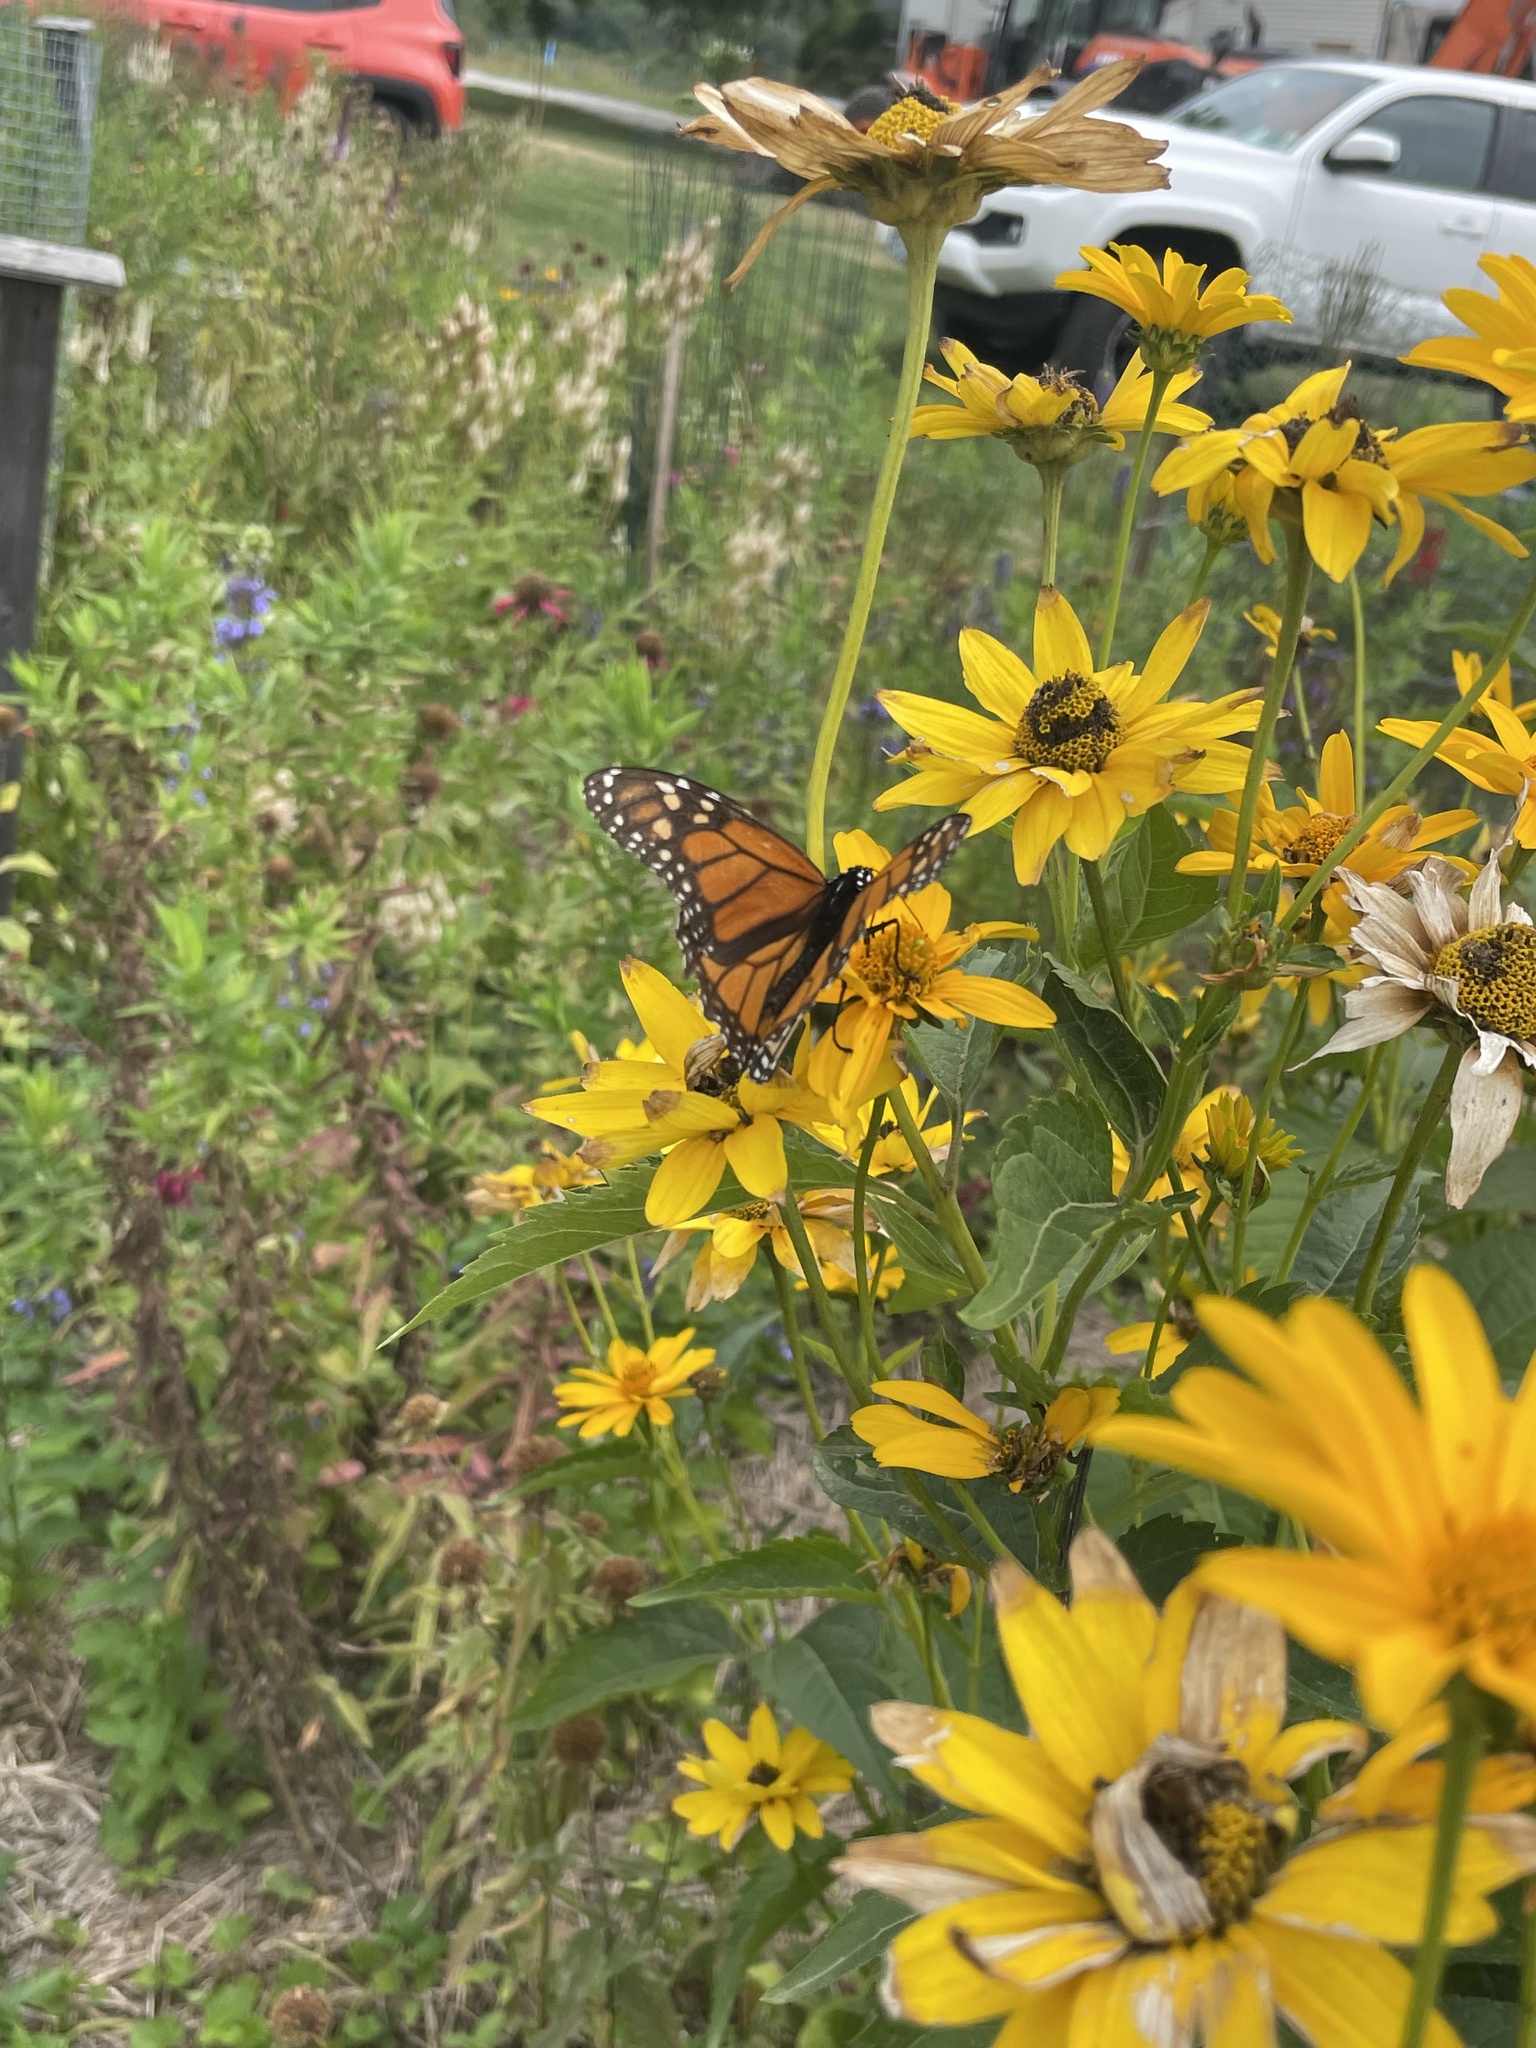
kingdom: Animalia
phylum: Arthropoda
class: Insecta
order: Lepidoptera
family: Nymphalidae
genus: Danaus
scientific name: Danaus plexippus
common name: Monarch
